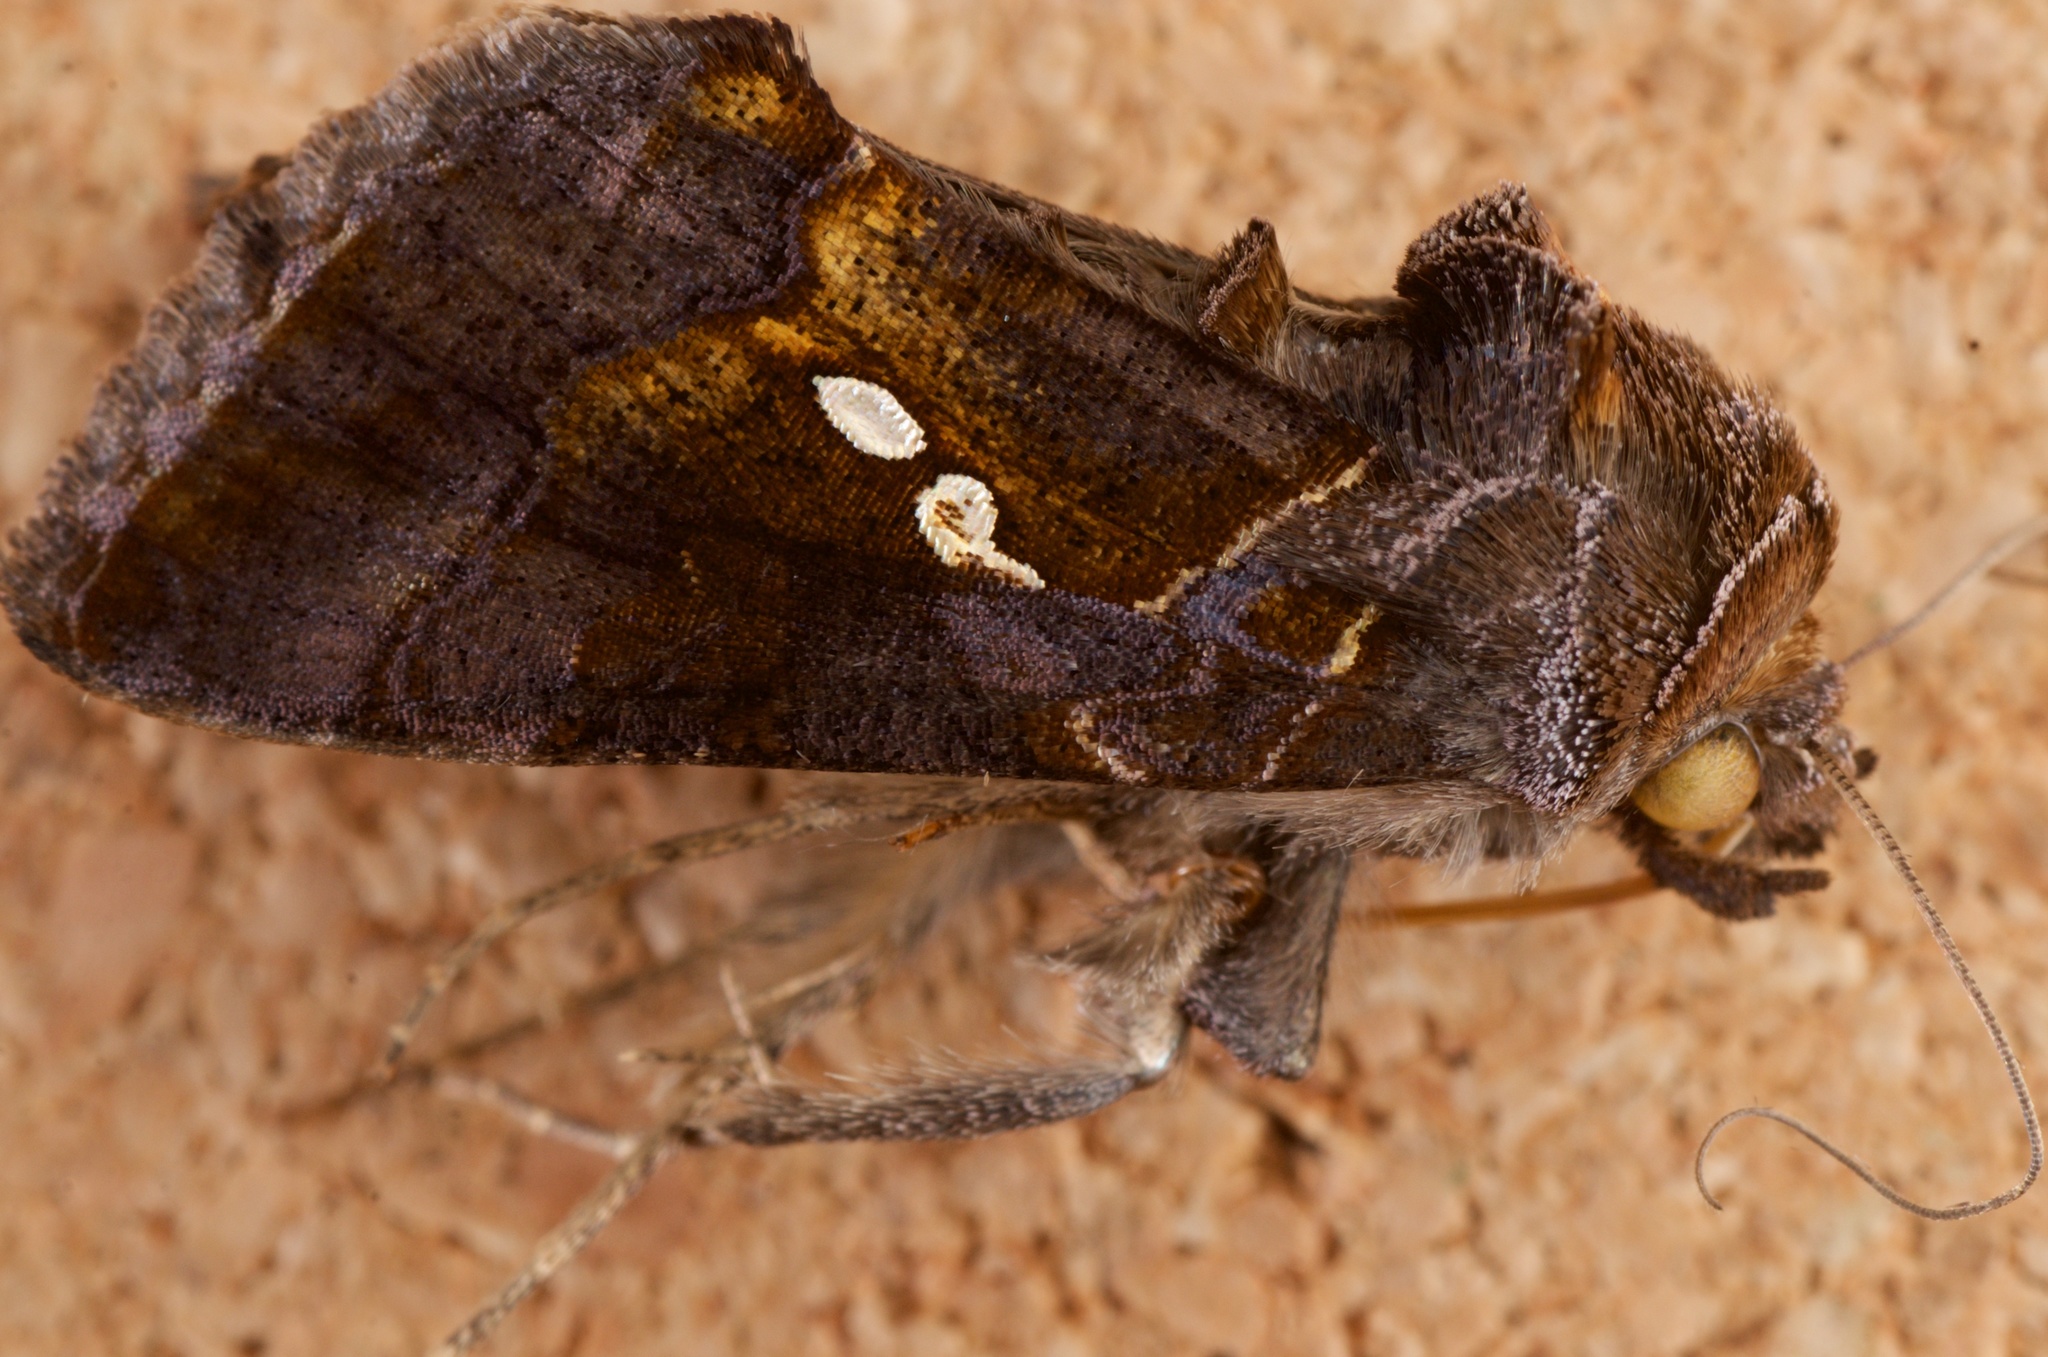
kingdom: Animalia
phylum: Arthropoda
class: Insecta
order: Lepidoptera
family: Noctuidae
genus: Chrysodeixis
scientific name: Chrysodeixis eriosoma
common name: Green garden looper
